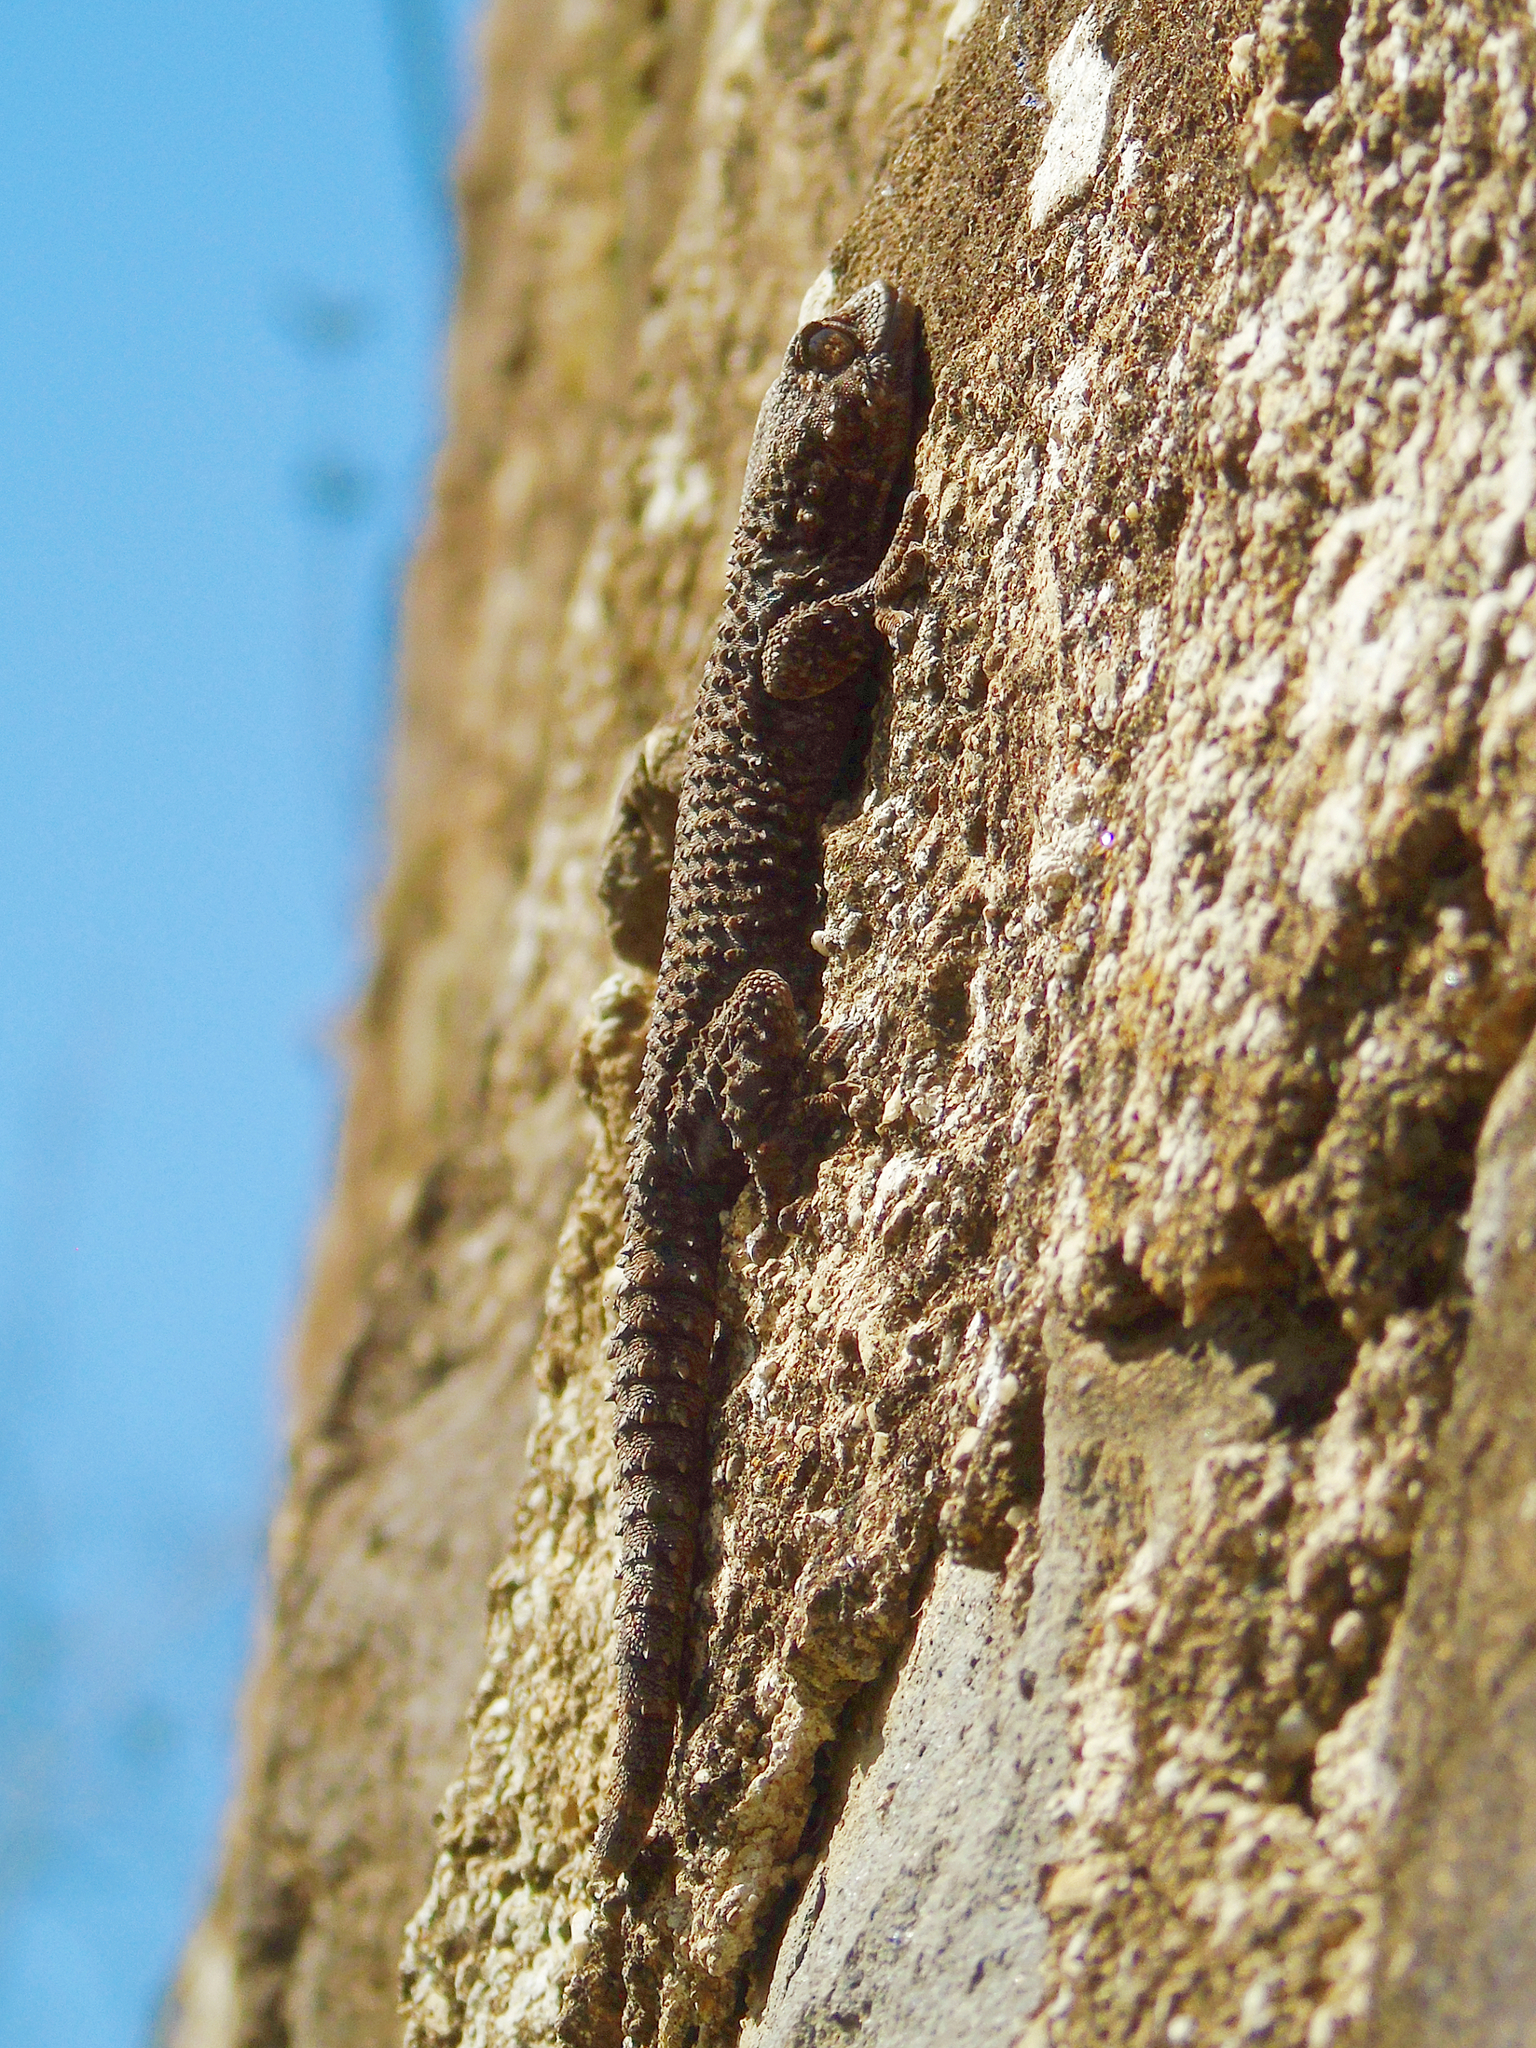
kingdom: Animalia
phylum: Chordata
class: Squamata
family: Phyllodactylidae
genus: Tarentola
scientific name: Tarentola mauritanica
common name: Moorish gecko
